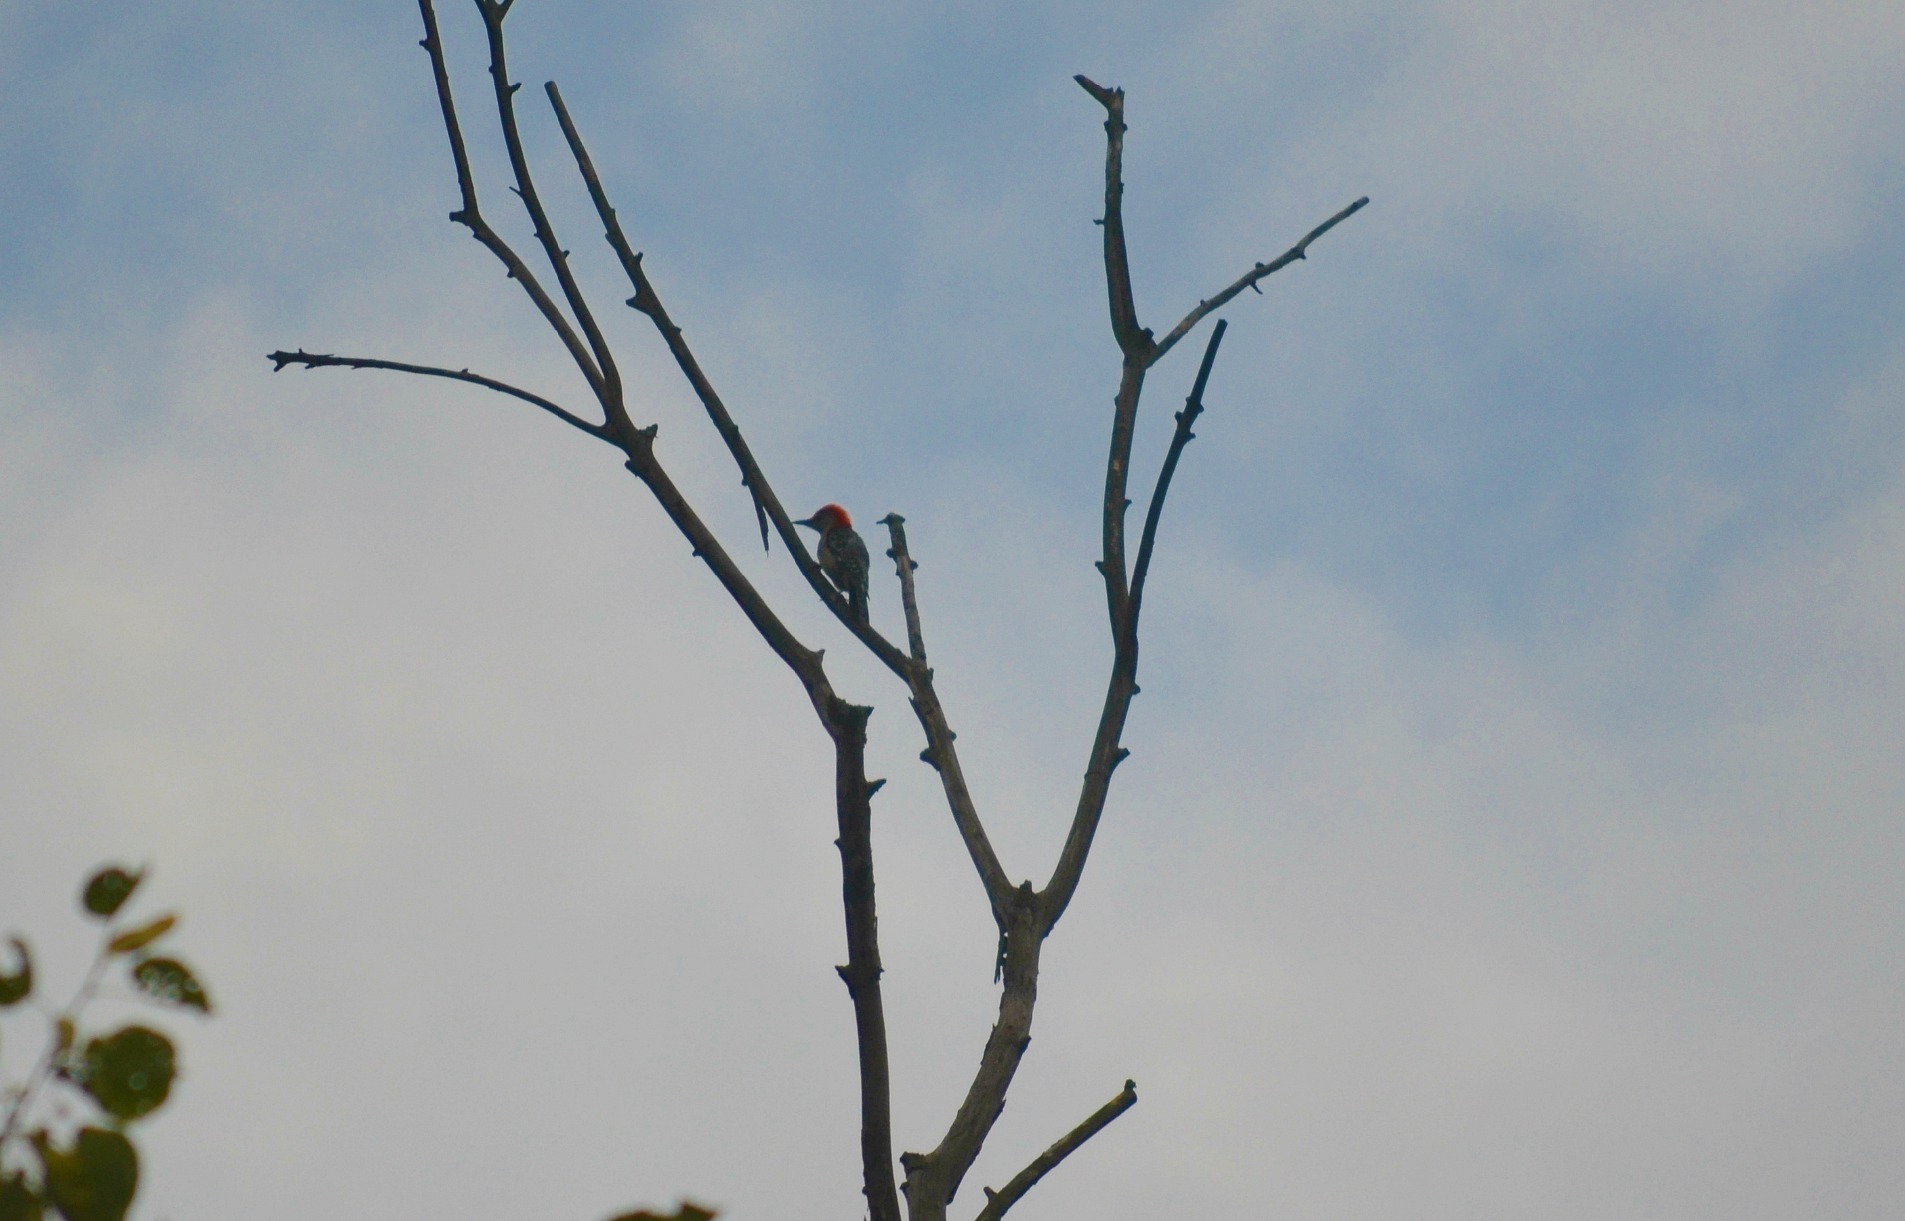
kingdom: Animalia
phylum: Chordata
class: Aves
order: Piciformes
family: Picidae
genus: Melanerpes
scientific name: Melanerpes carolinus
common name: Red-bellied woodpecker
